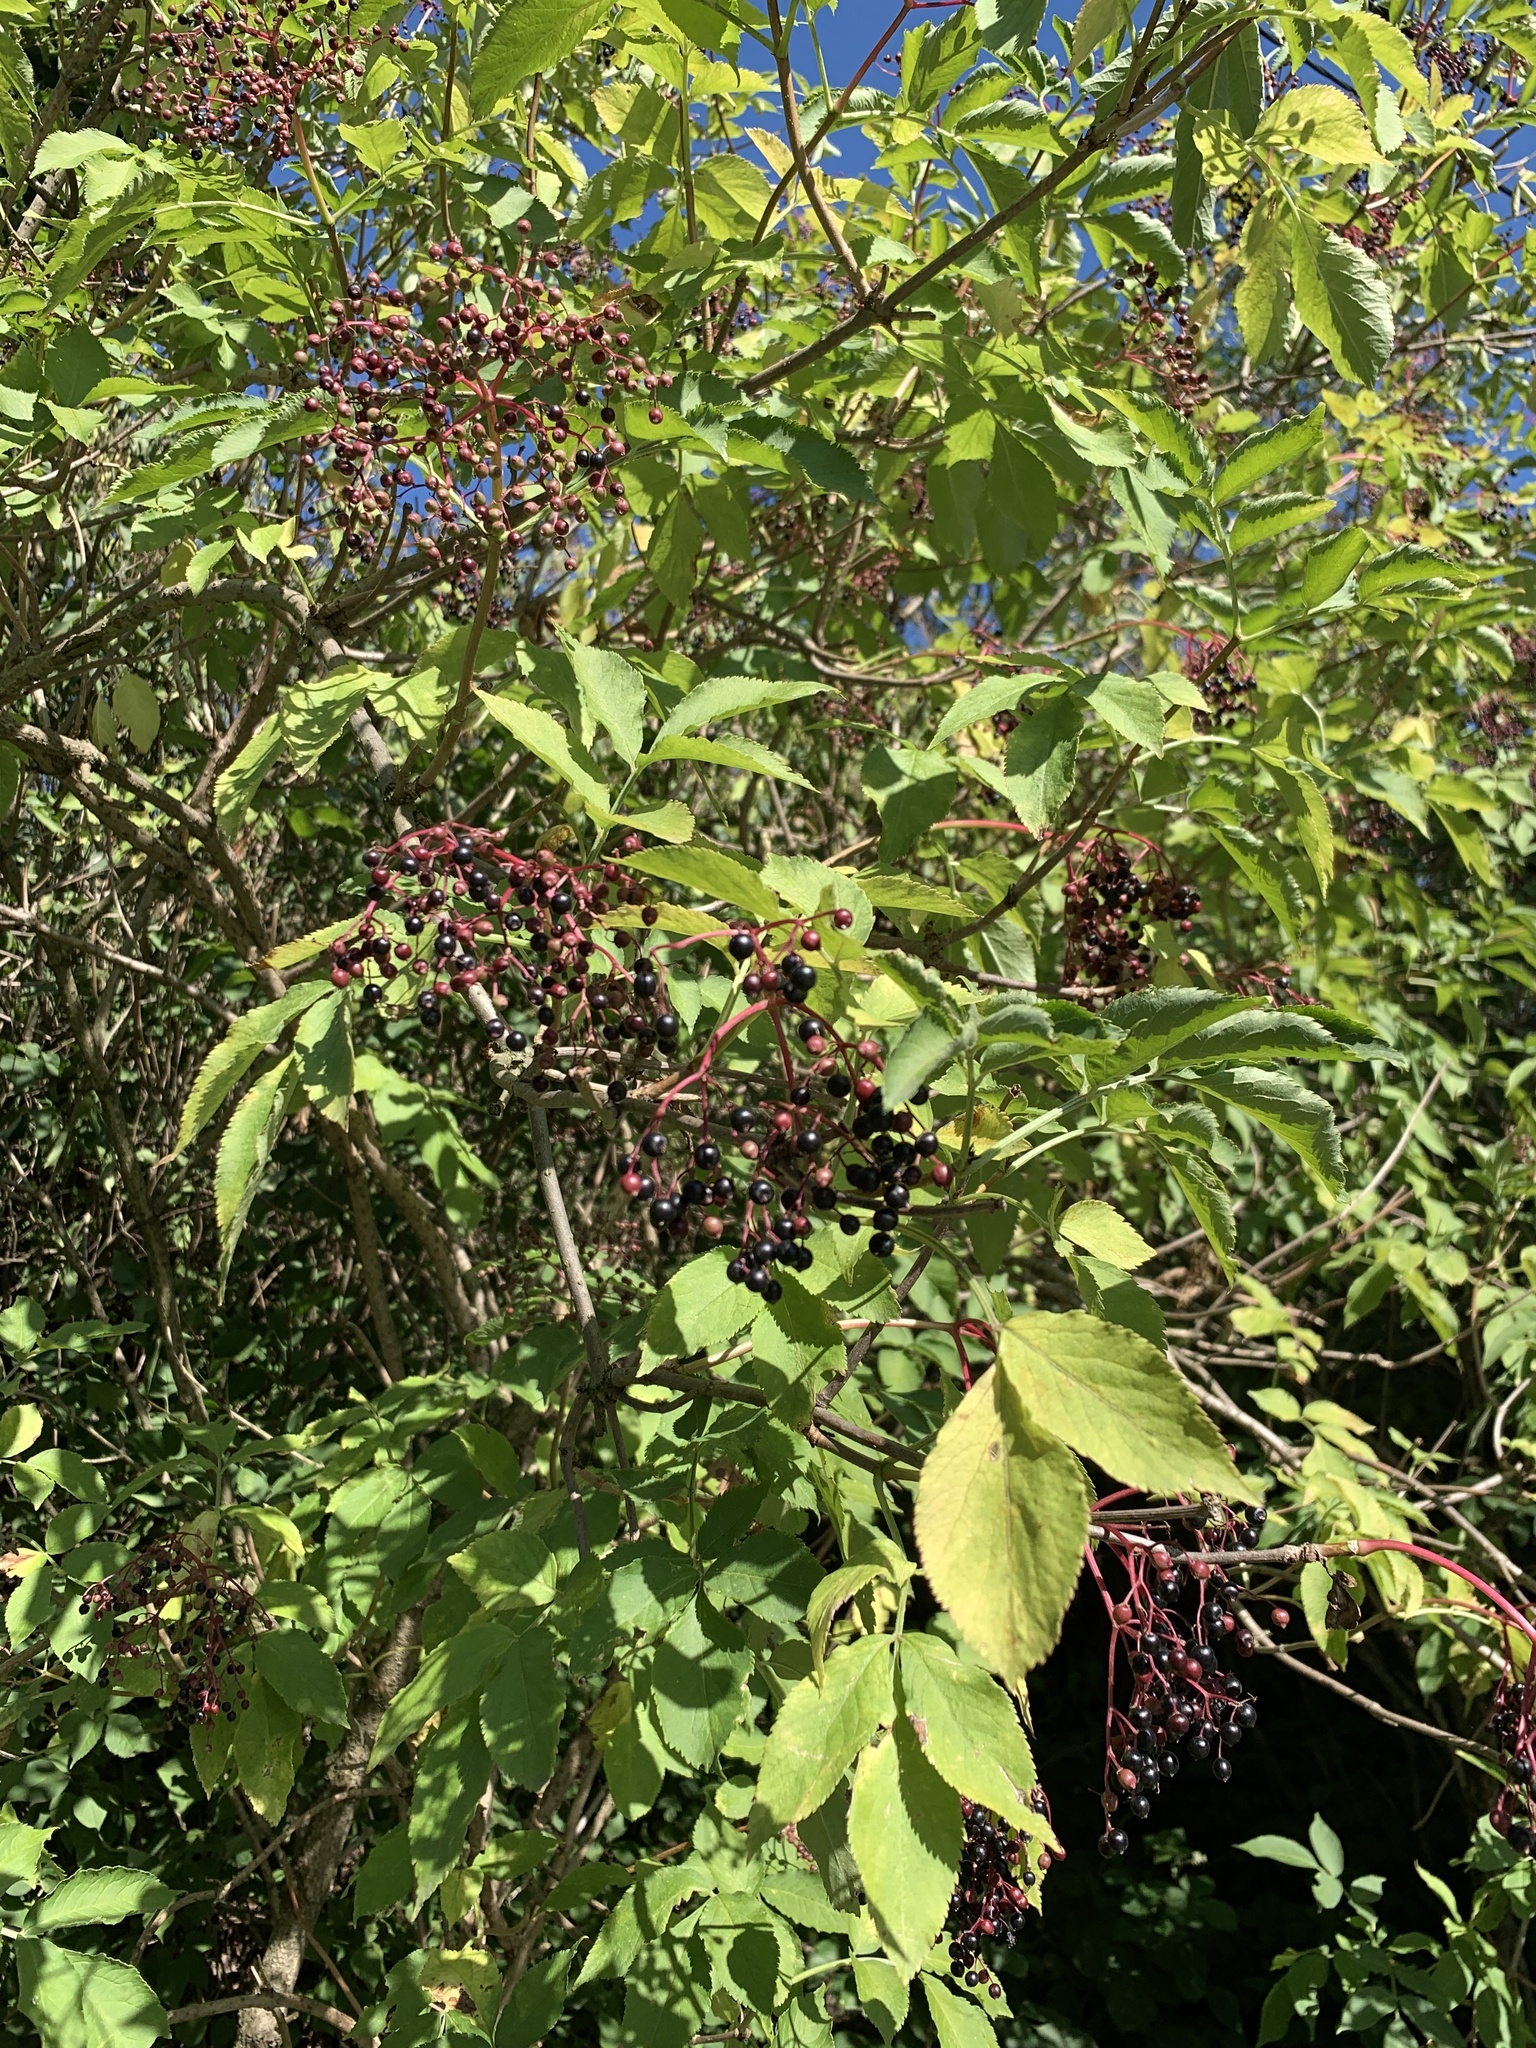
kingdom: Plantae
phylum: Tracheophyta
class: Magnoliopsida
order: Dipsacales
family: Viburnaceae
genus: Sambucus
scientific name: Sambucus nigra
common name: Elder
